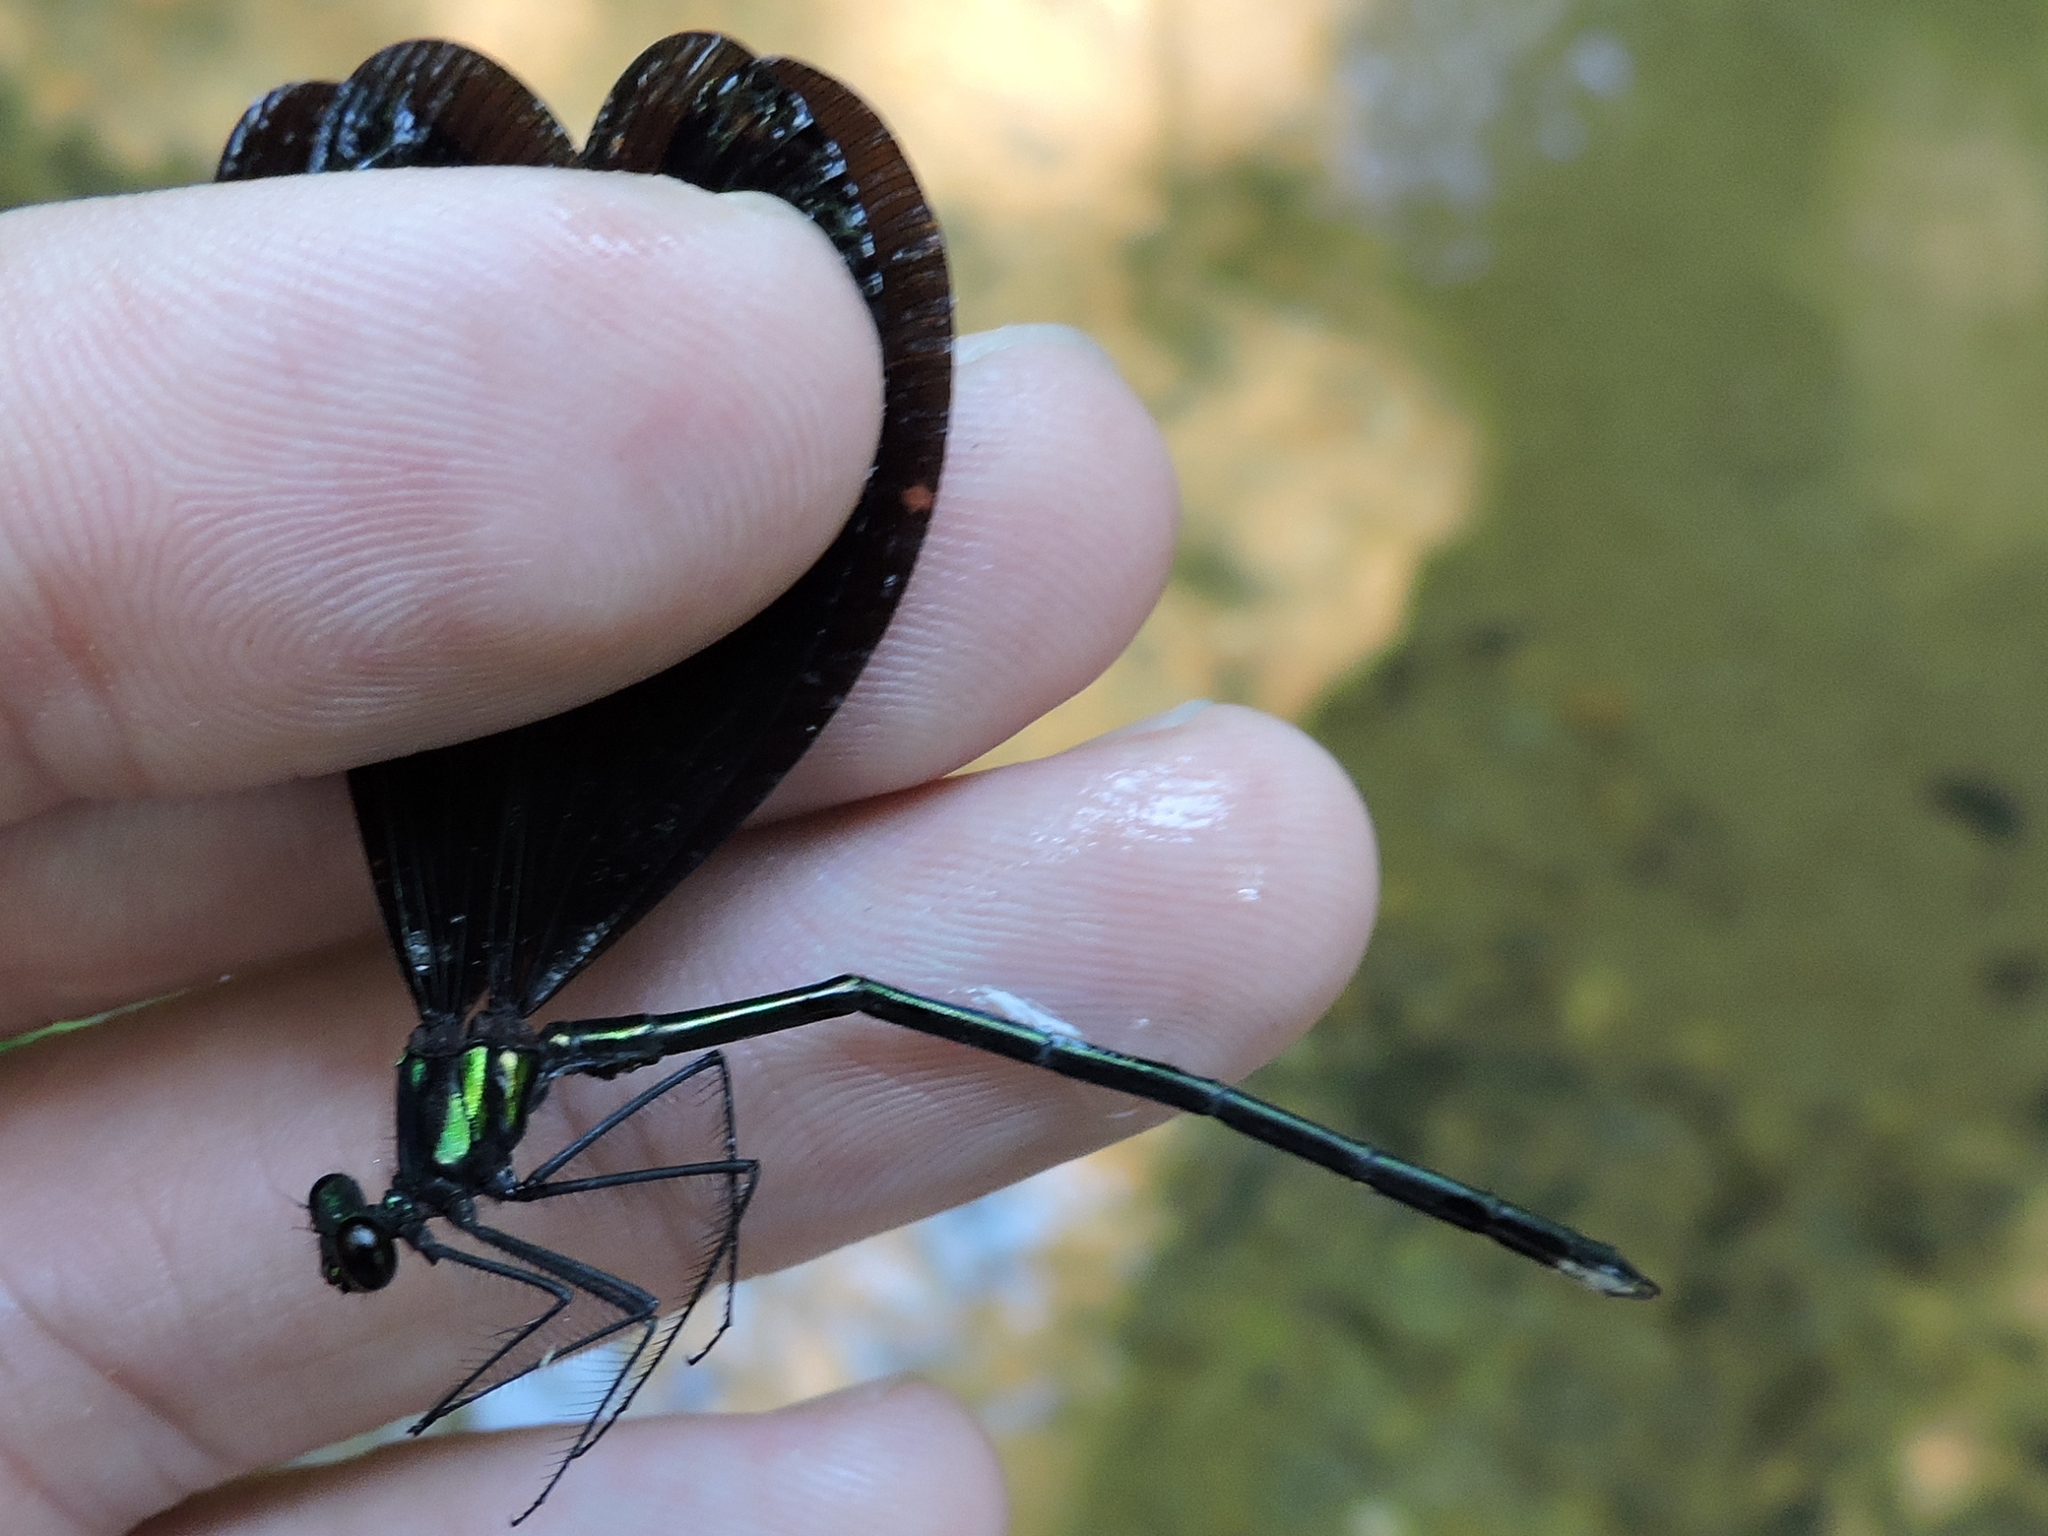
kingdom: Animalia
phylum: Arthropoda
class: Insecta
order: Odonata
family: Calopterygidae
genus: Calopteryx
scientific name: Calopteryx maculata
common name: Ebony jewelwing
